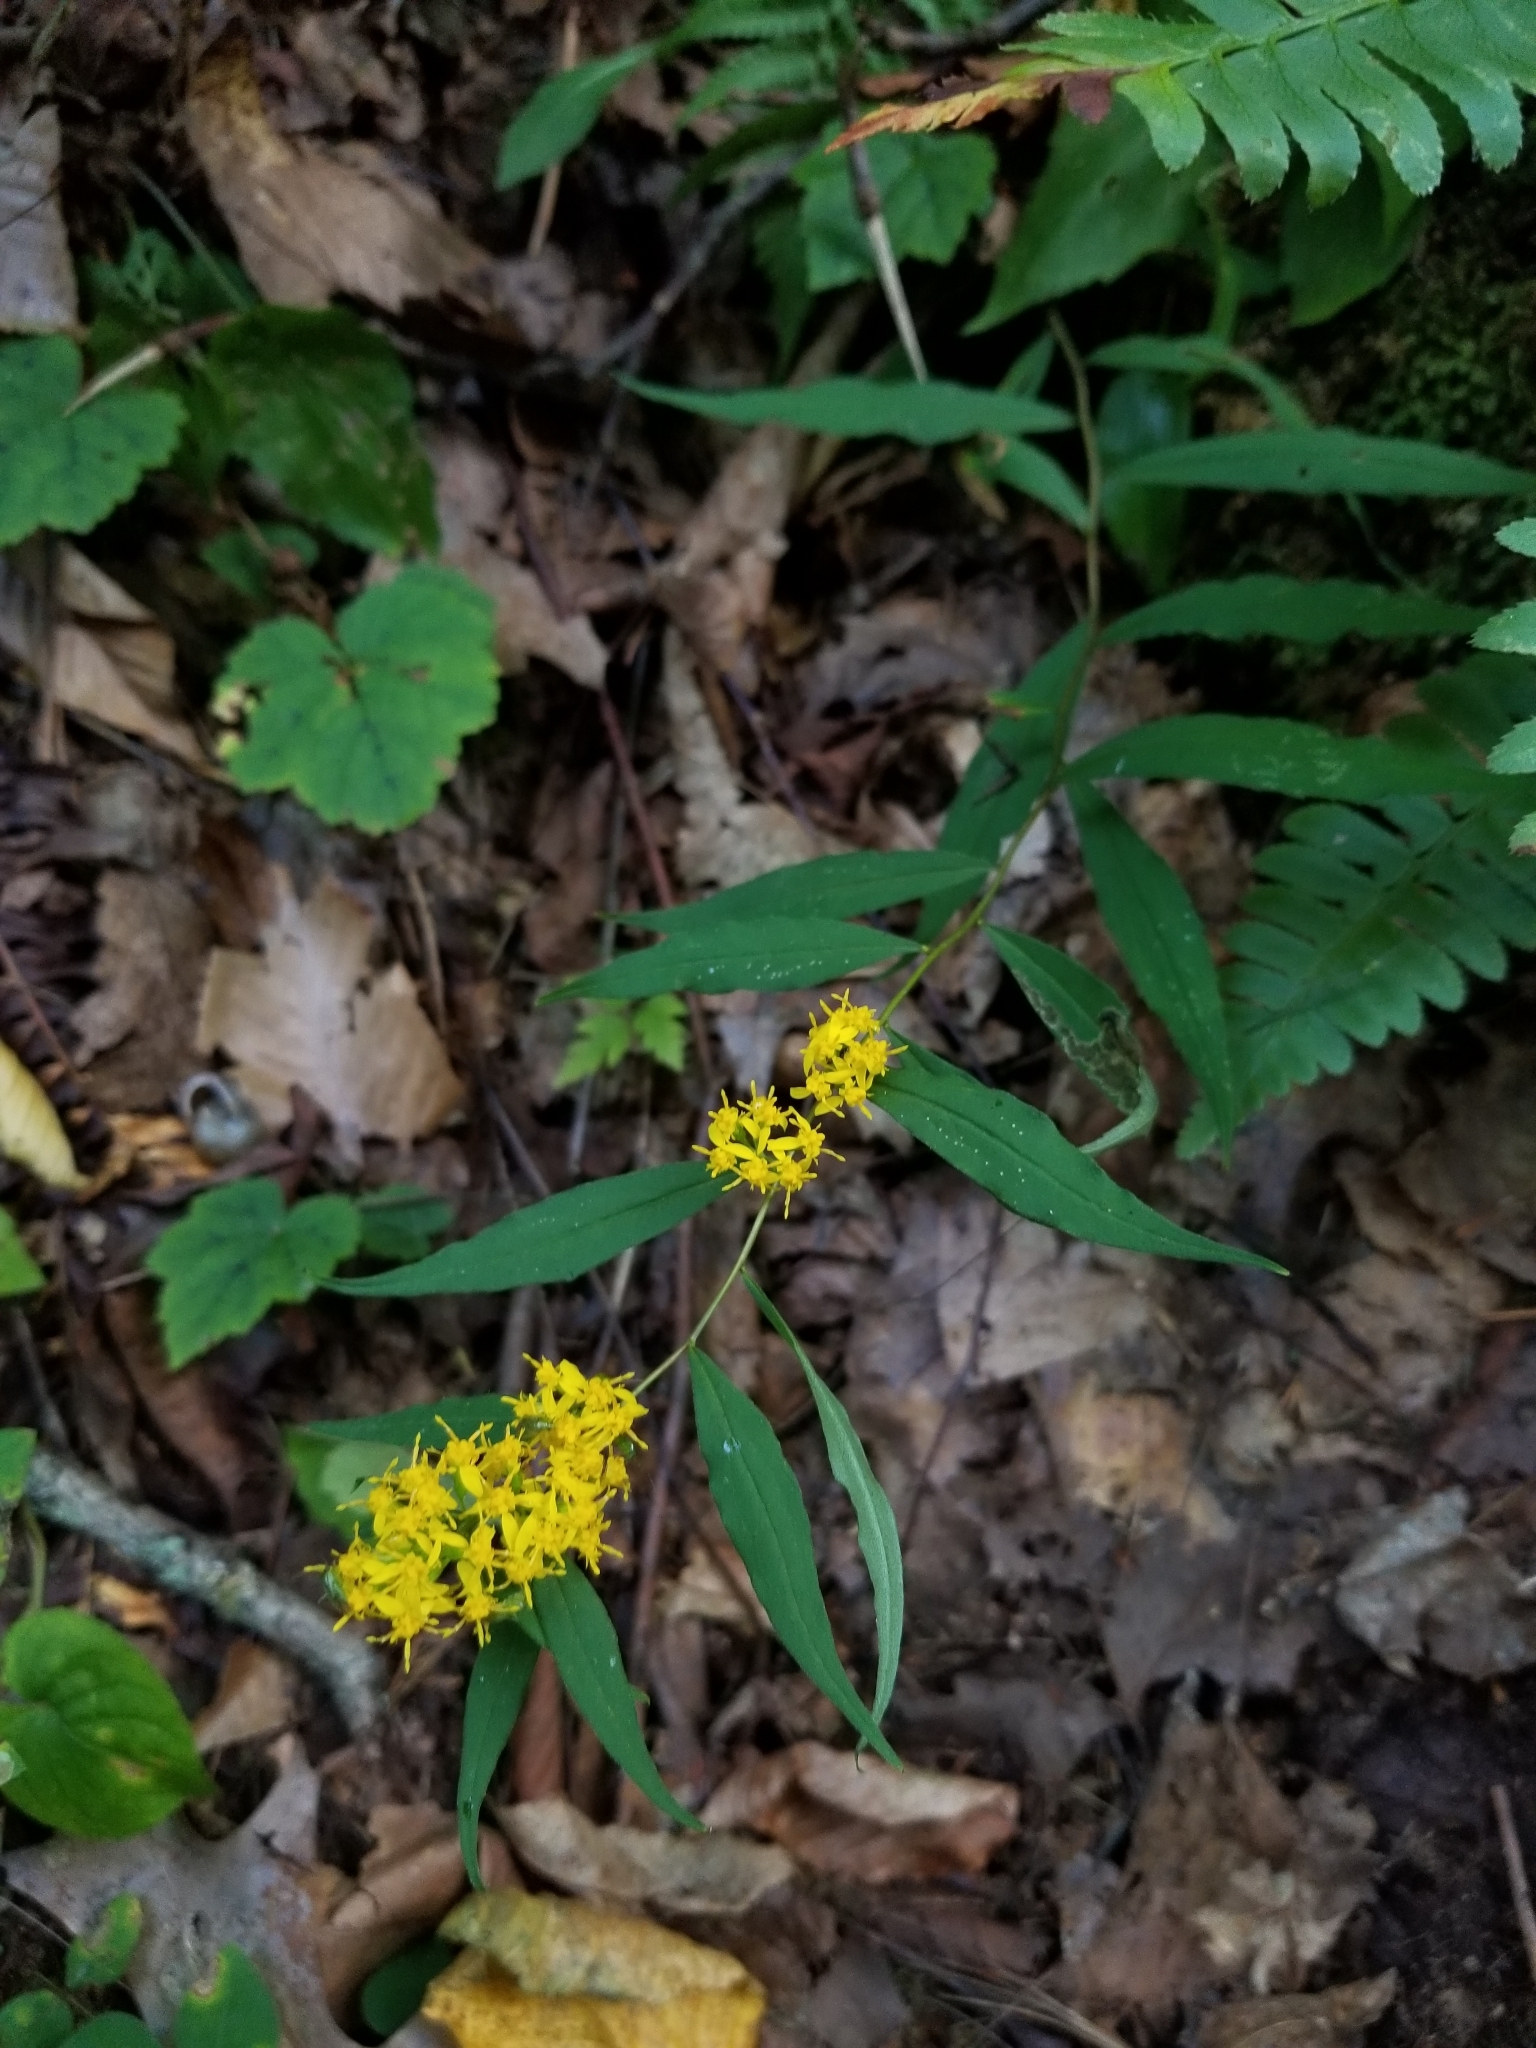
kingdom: Plantae
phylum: Tracheophyta
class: Magnoliopsida
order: Asterales
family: Asteraceae
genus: Solidago
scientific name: Solidago caesia
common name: Woodland goldenrod
